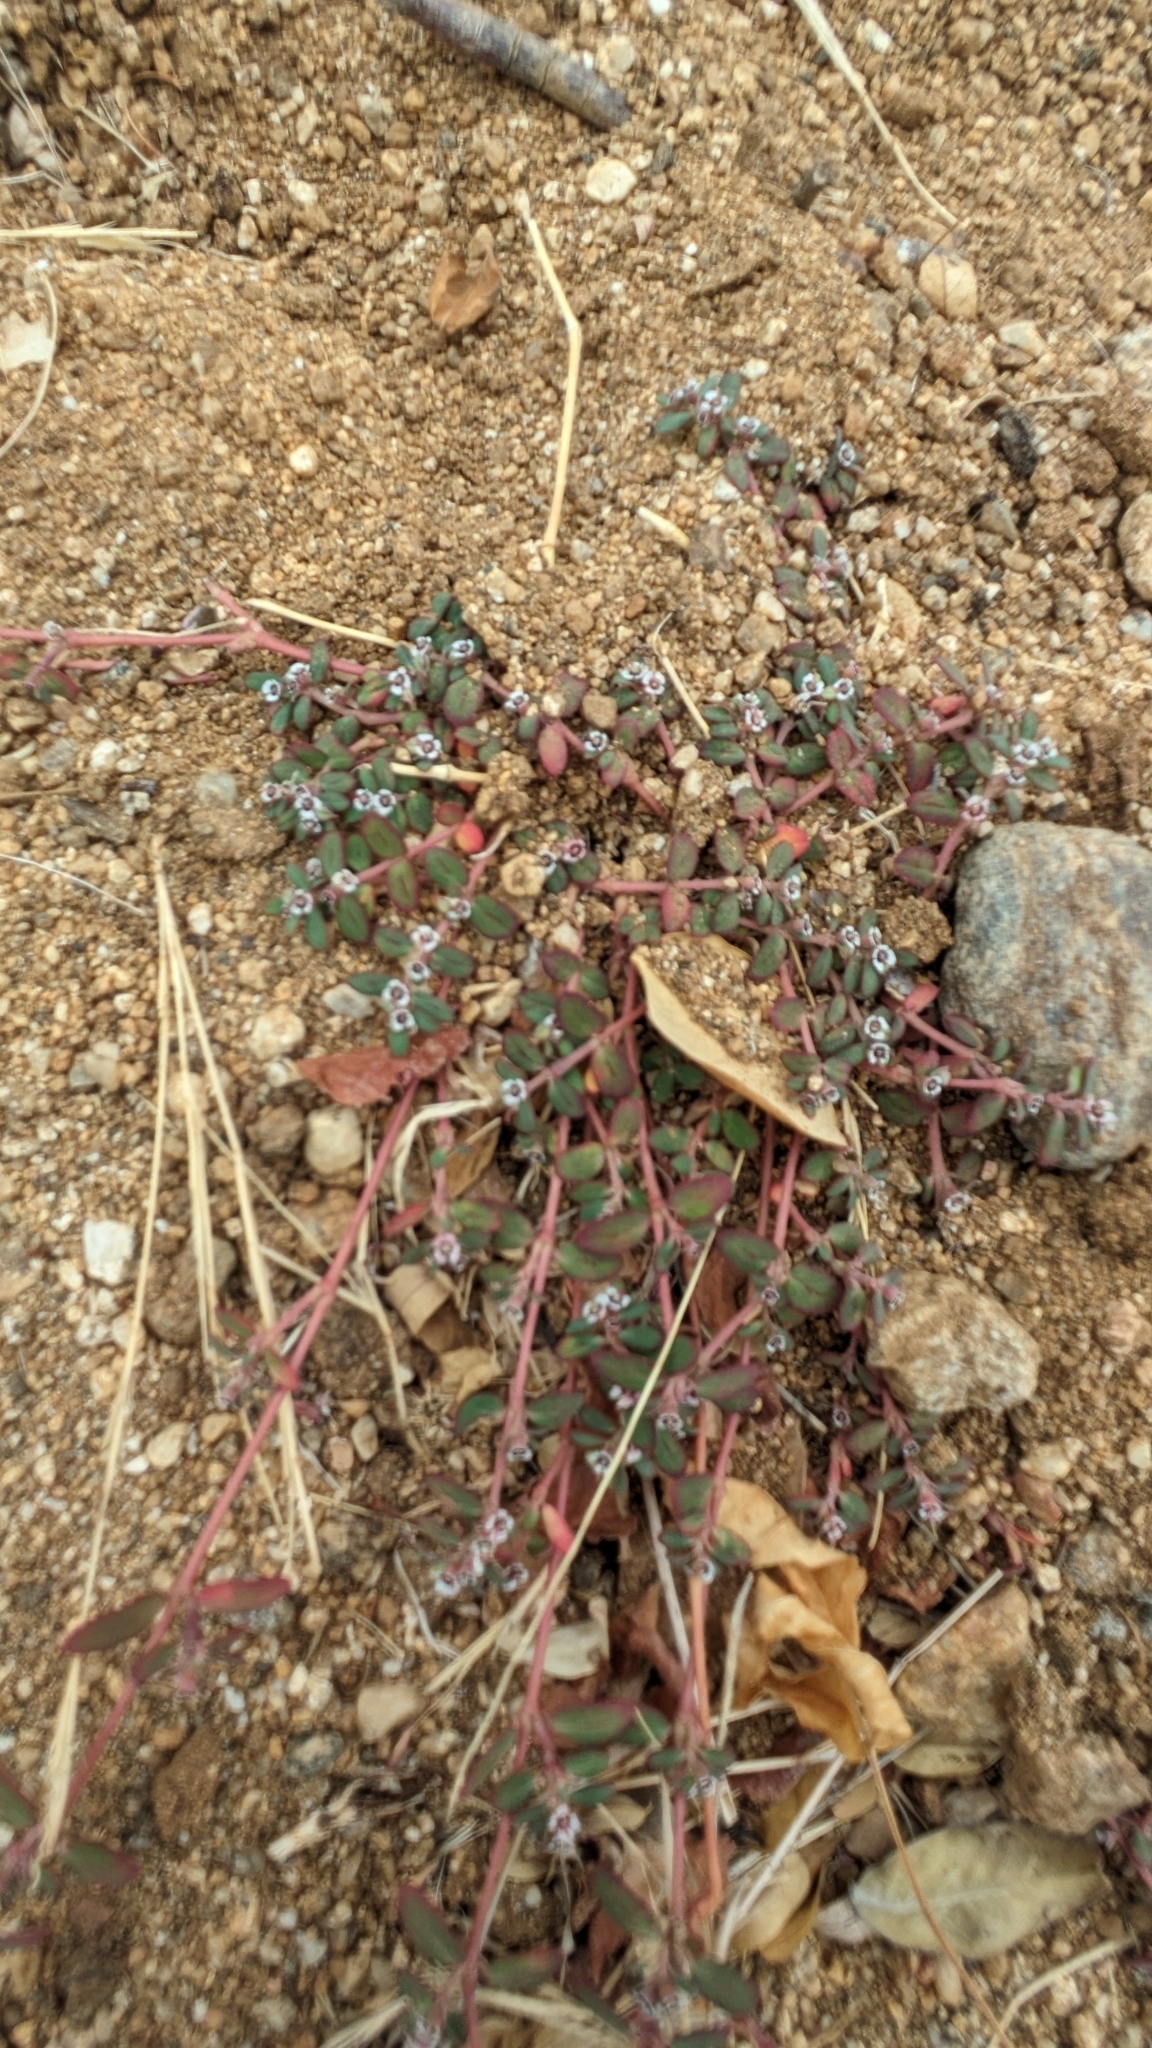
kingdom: Plantae
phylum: Tracheophyta
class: Magnoliopsida
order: Malpighiales
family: Euphorbiaceae
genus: Euphorbia
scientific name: Euphorbia pediculifera
